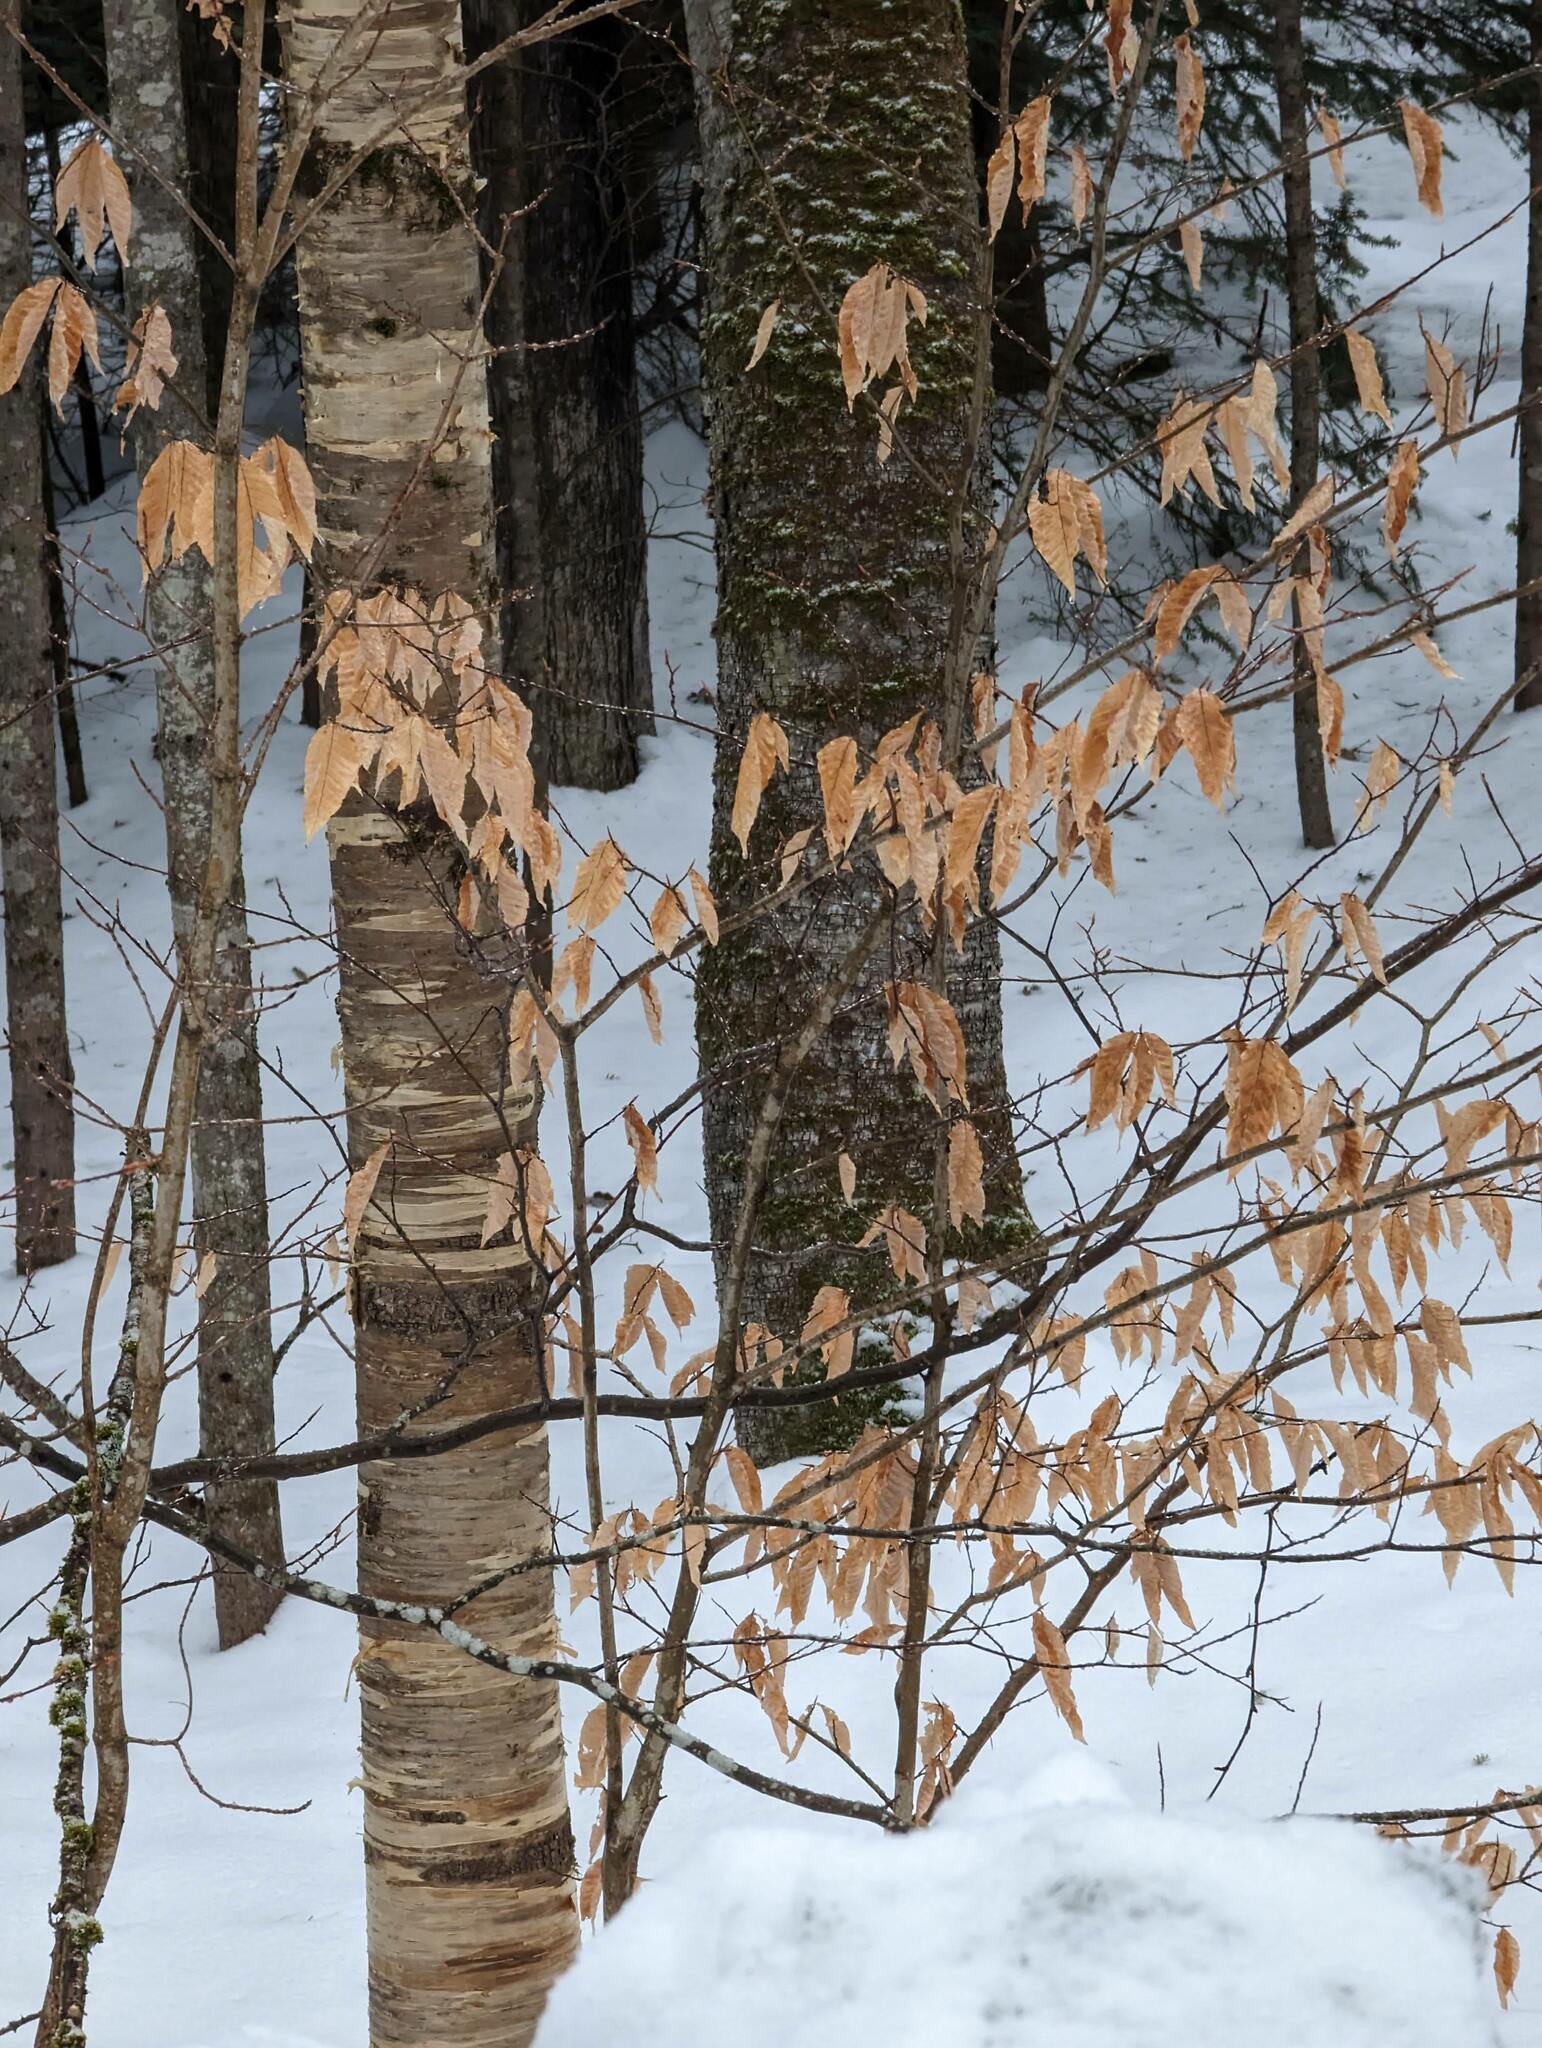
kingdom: Plantae
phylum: Tracheophyta
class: Magnoliopsida
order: Fagales
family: Fagaceae
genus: Fagus
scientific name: Fagus grandifolia
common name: American beech
